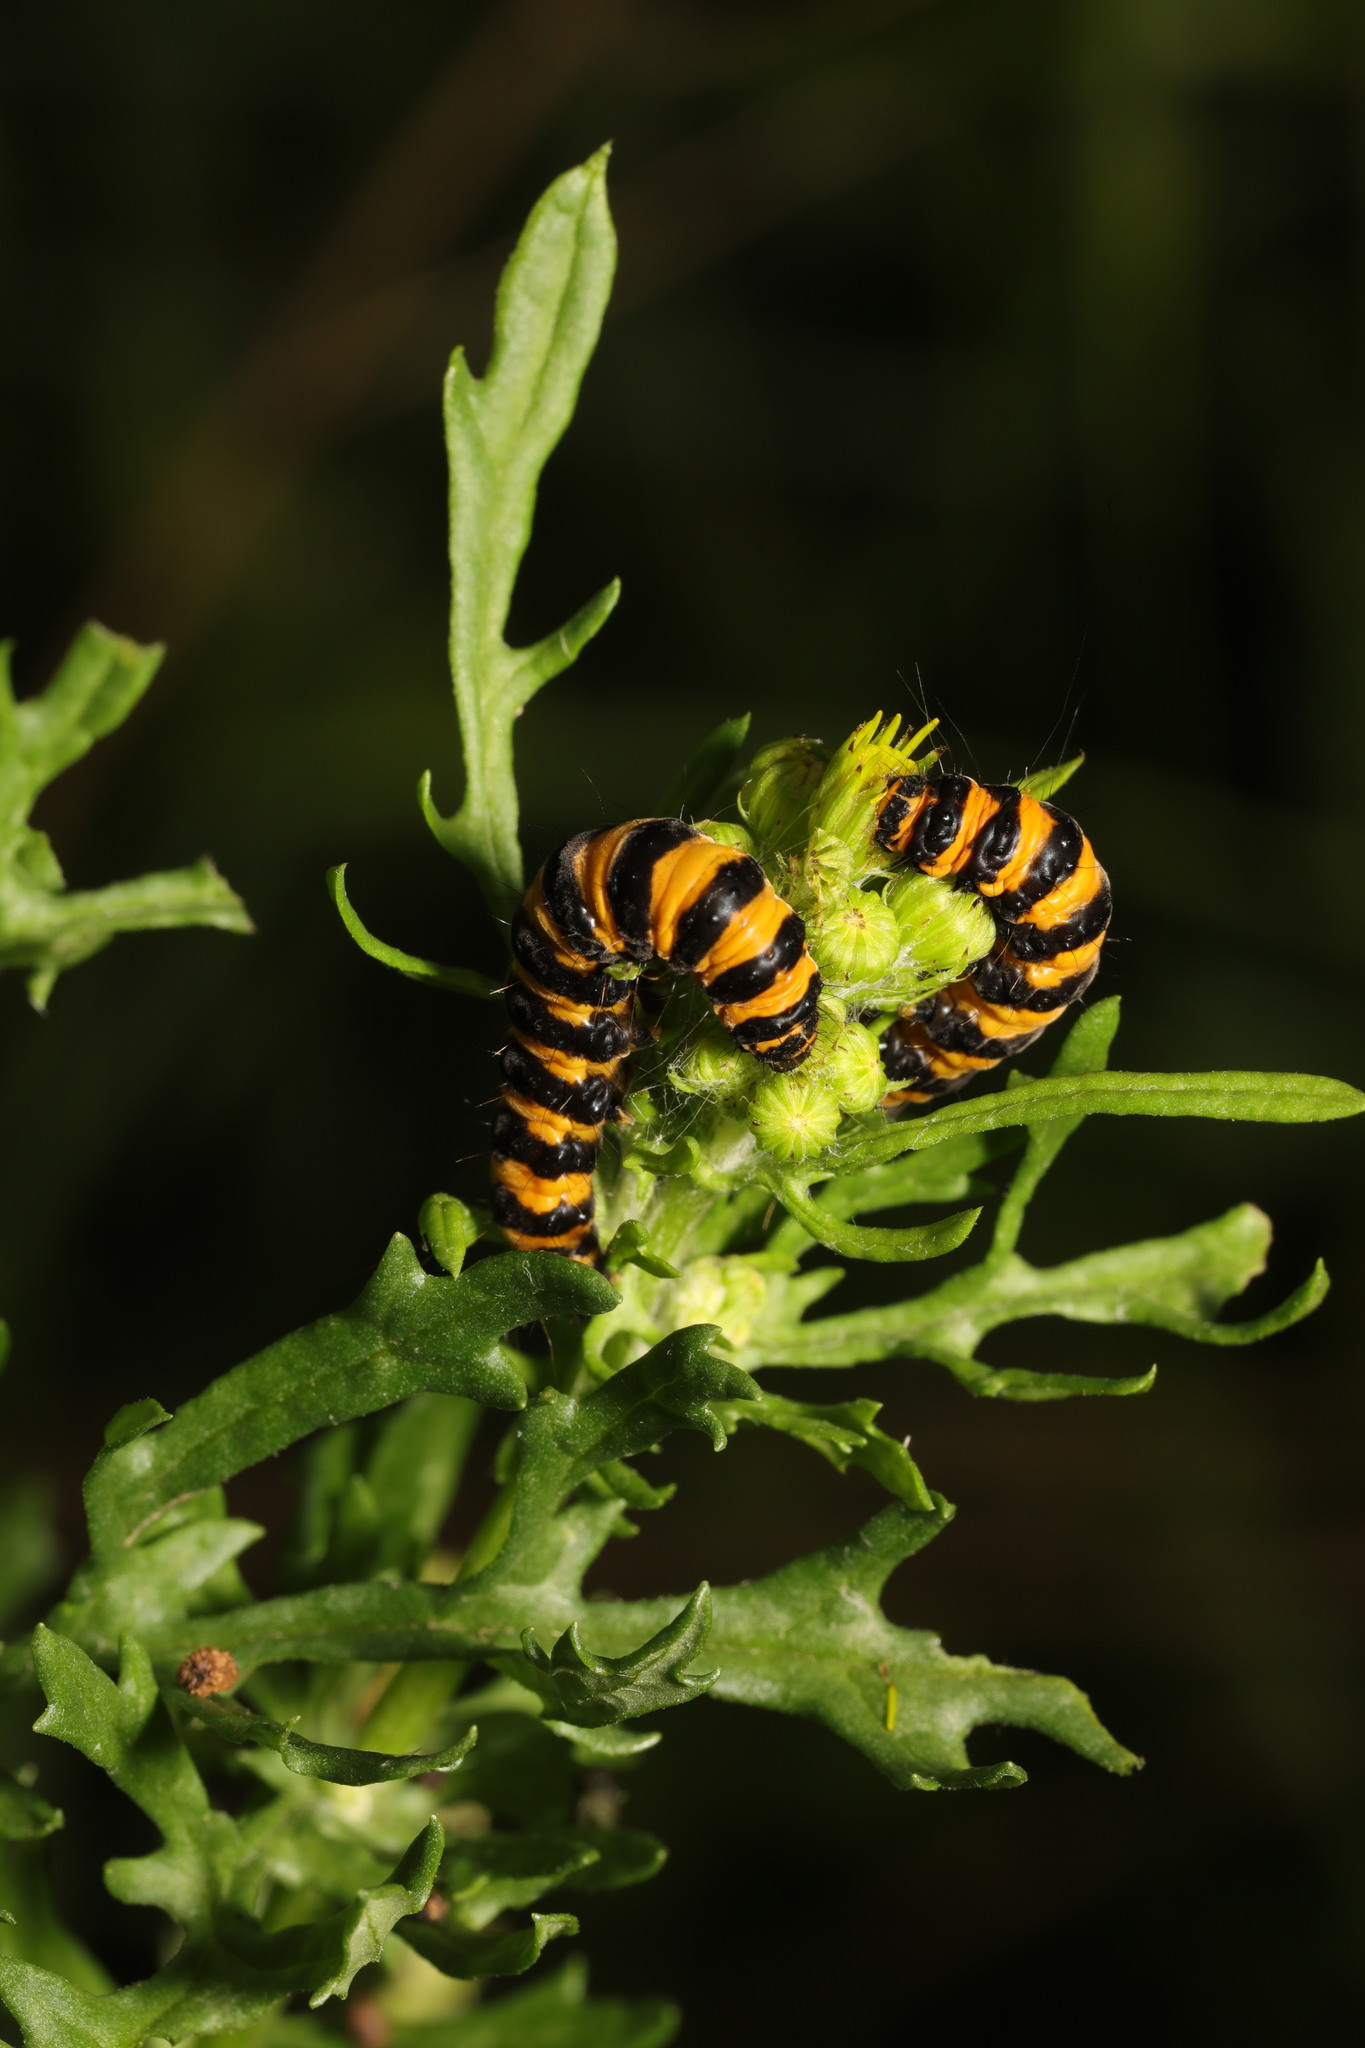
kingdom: Animalia
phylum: Arthropoda
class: Insecta
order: Lepidoptera
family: Erebidae
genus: Tyria
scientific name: Tyria jacobaeae
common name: Cinnabar
